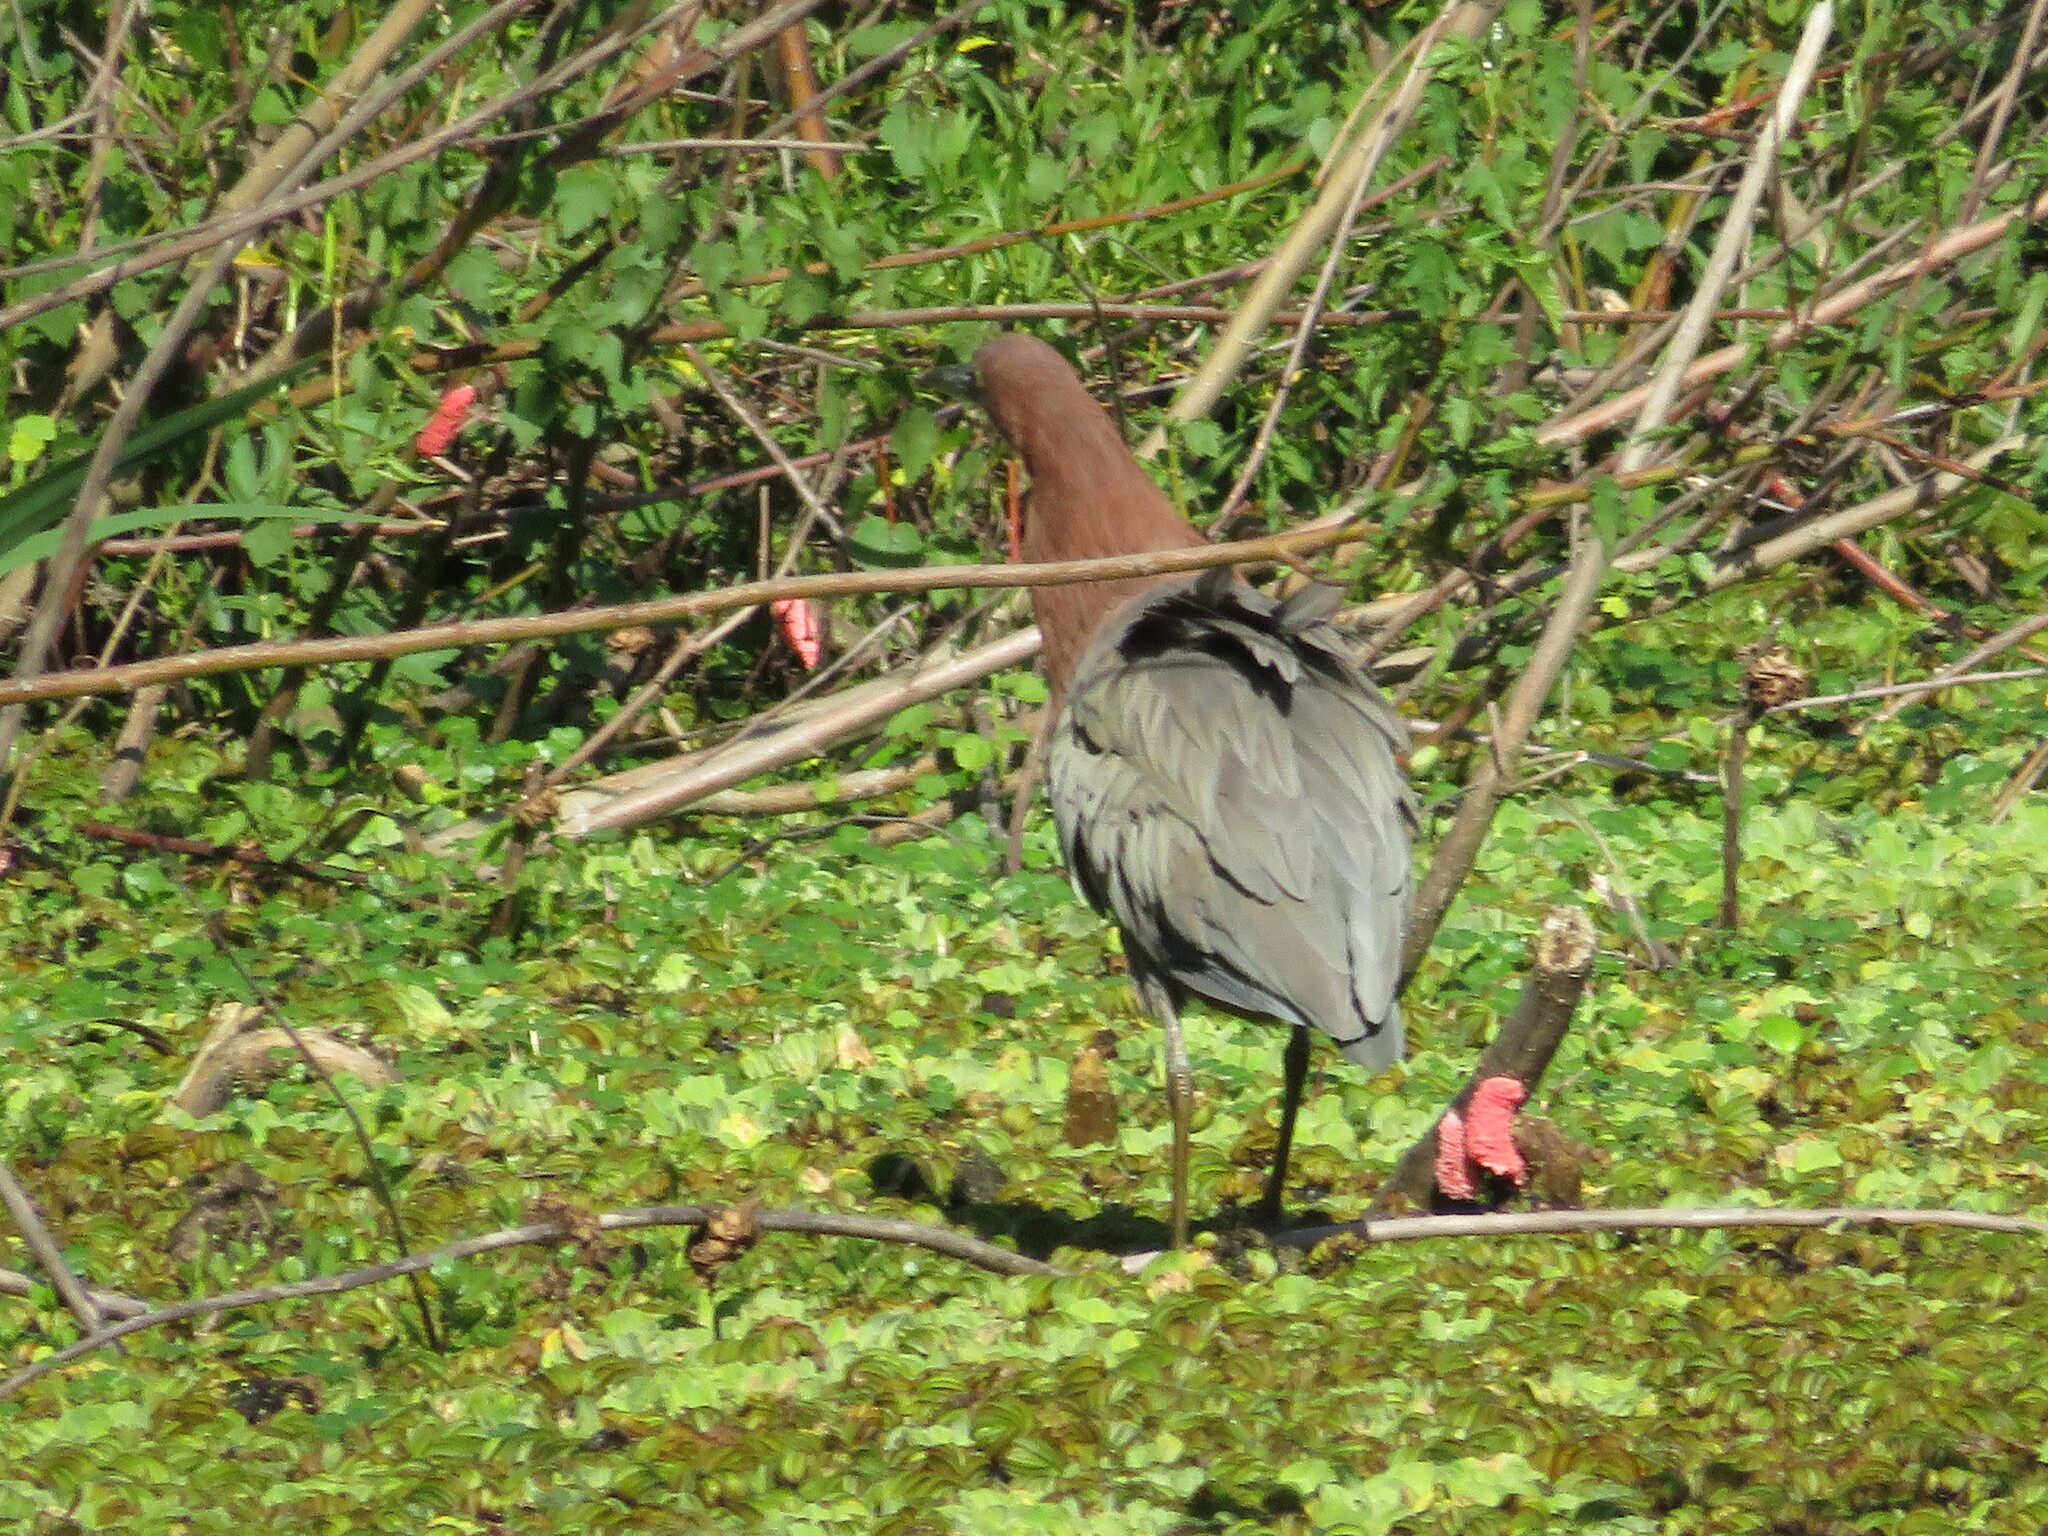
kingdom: Animalia
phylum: Chordata
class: Aves
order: Pelecaniformes
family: Ardeidae
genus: Tigrisoma
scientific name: Tigrisoma lineatum
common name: Rufescent tiger-heron
